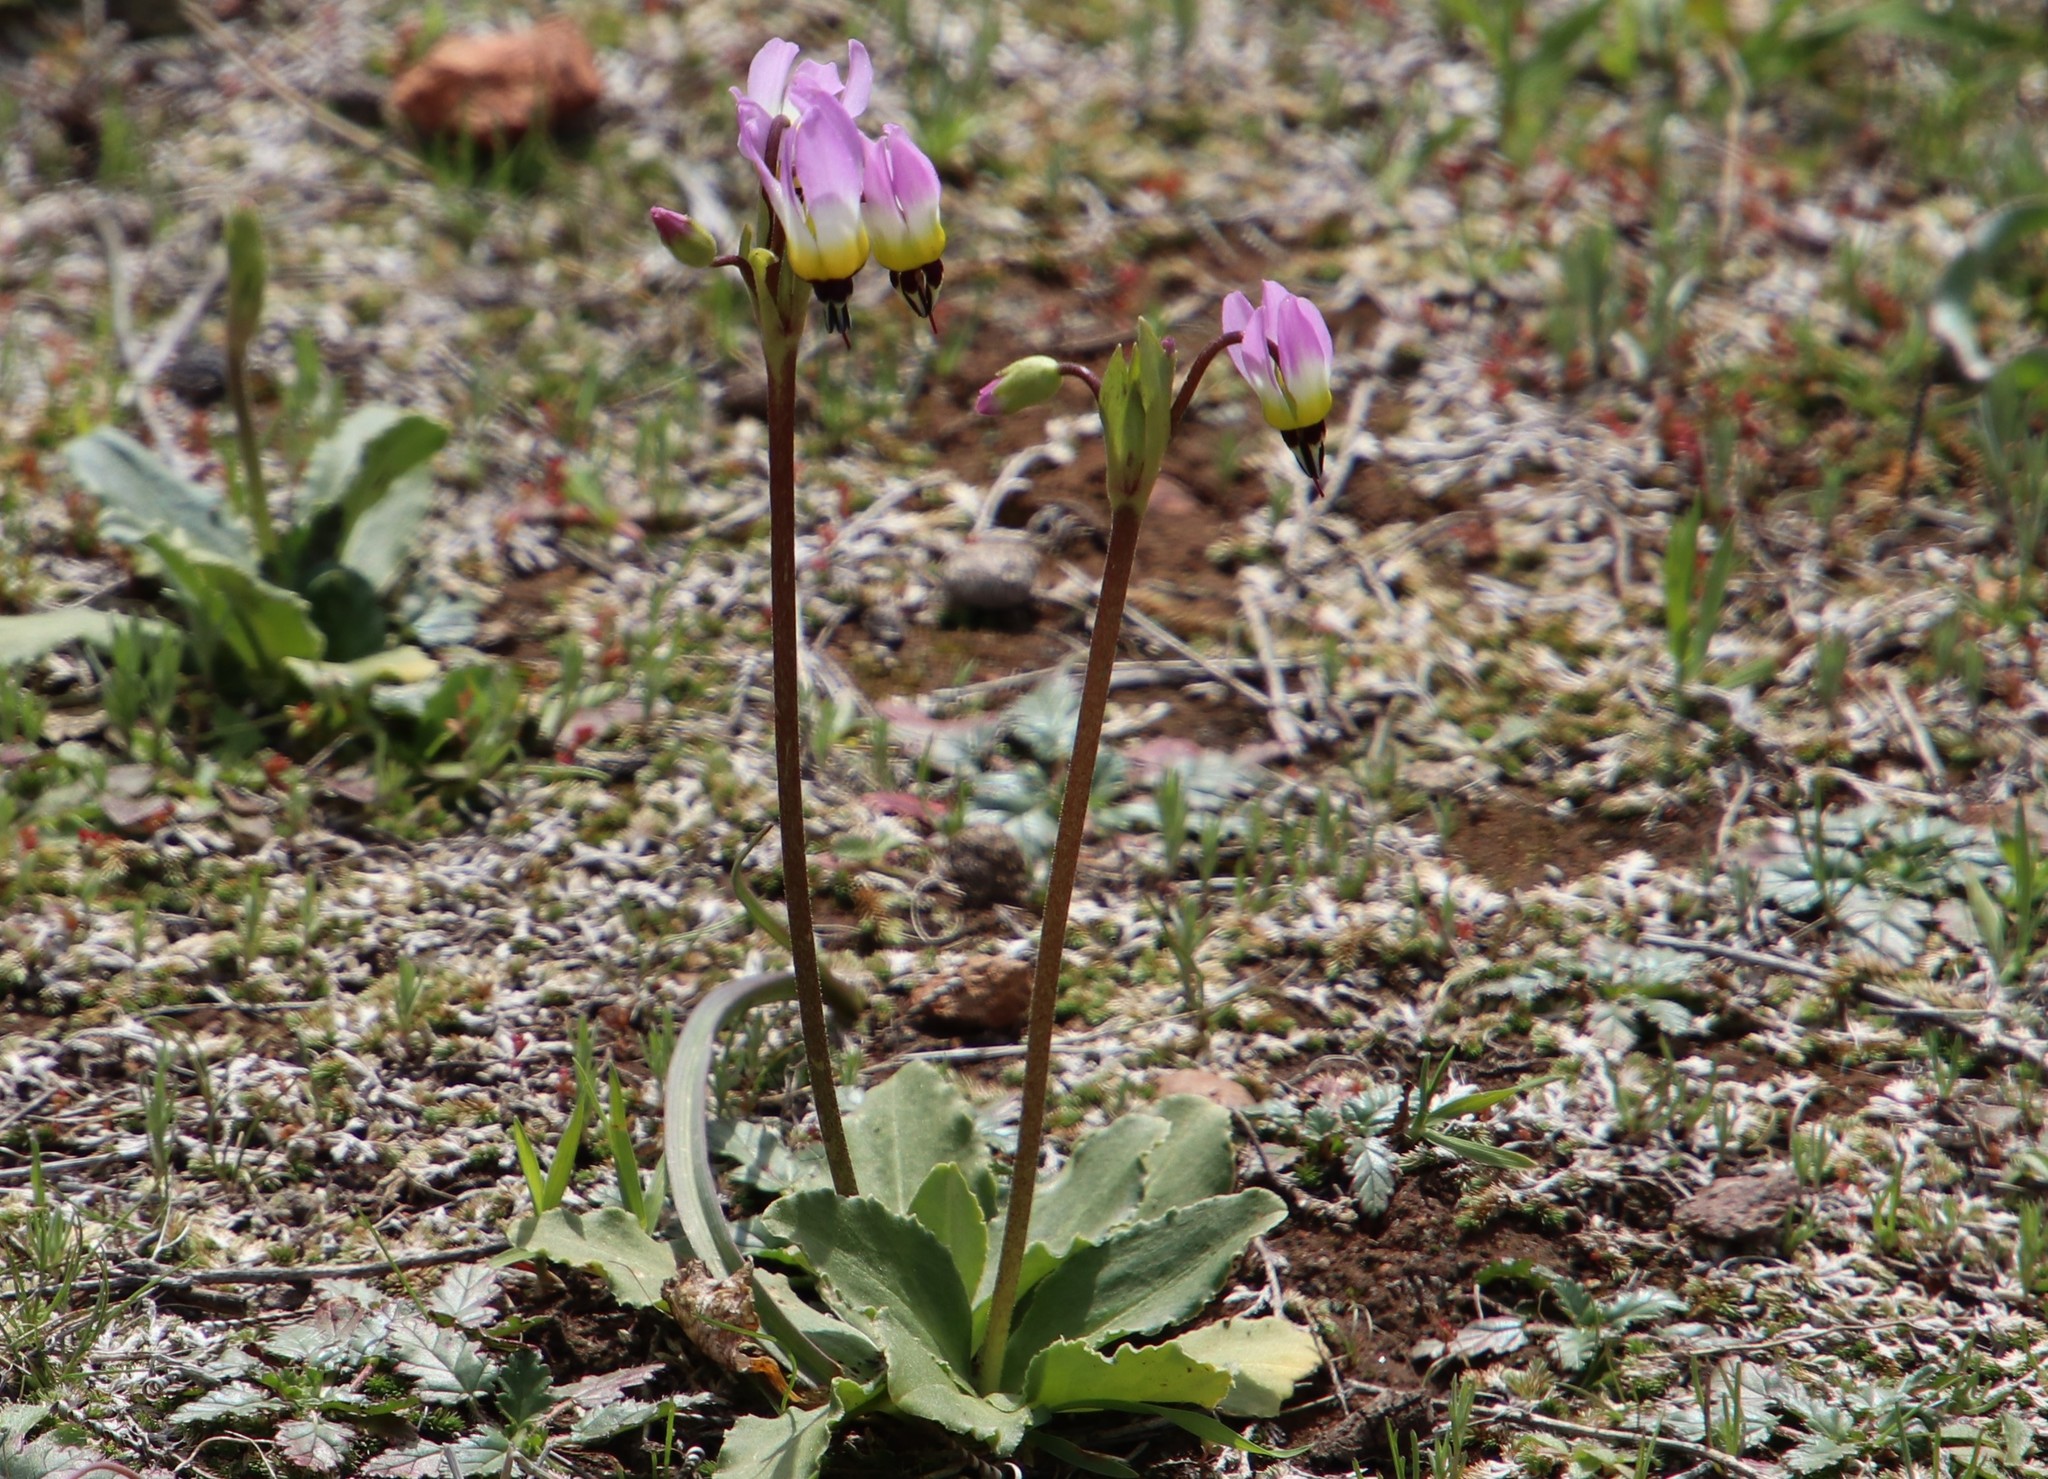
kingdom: Plantae
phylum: Tracheophyta
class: Magnoliopsida
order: Ericales
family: Primulaceae
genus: Dodecatheon
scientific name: Dodecatheon clevelandii
